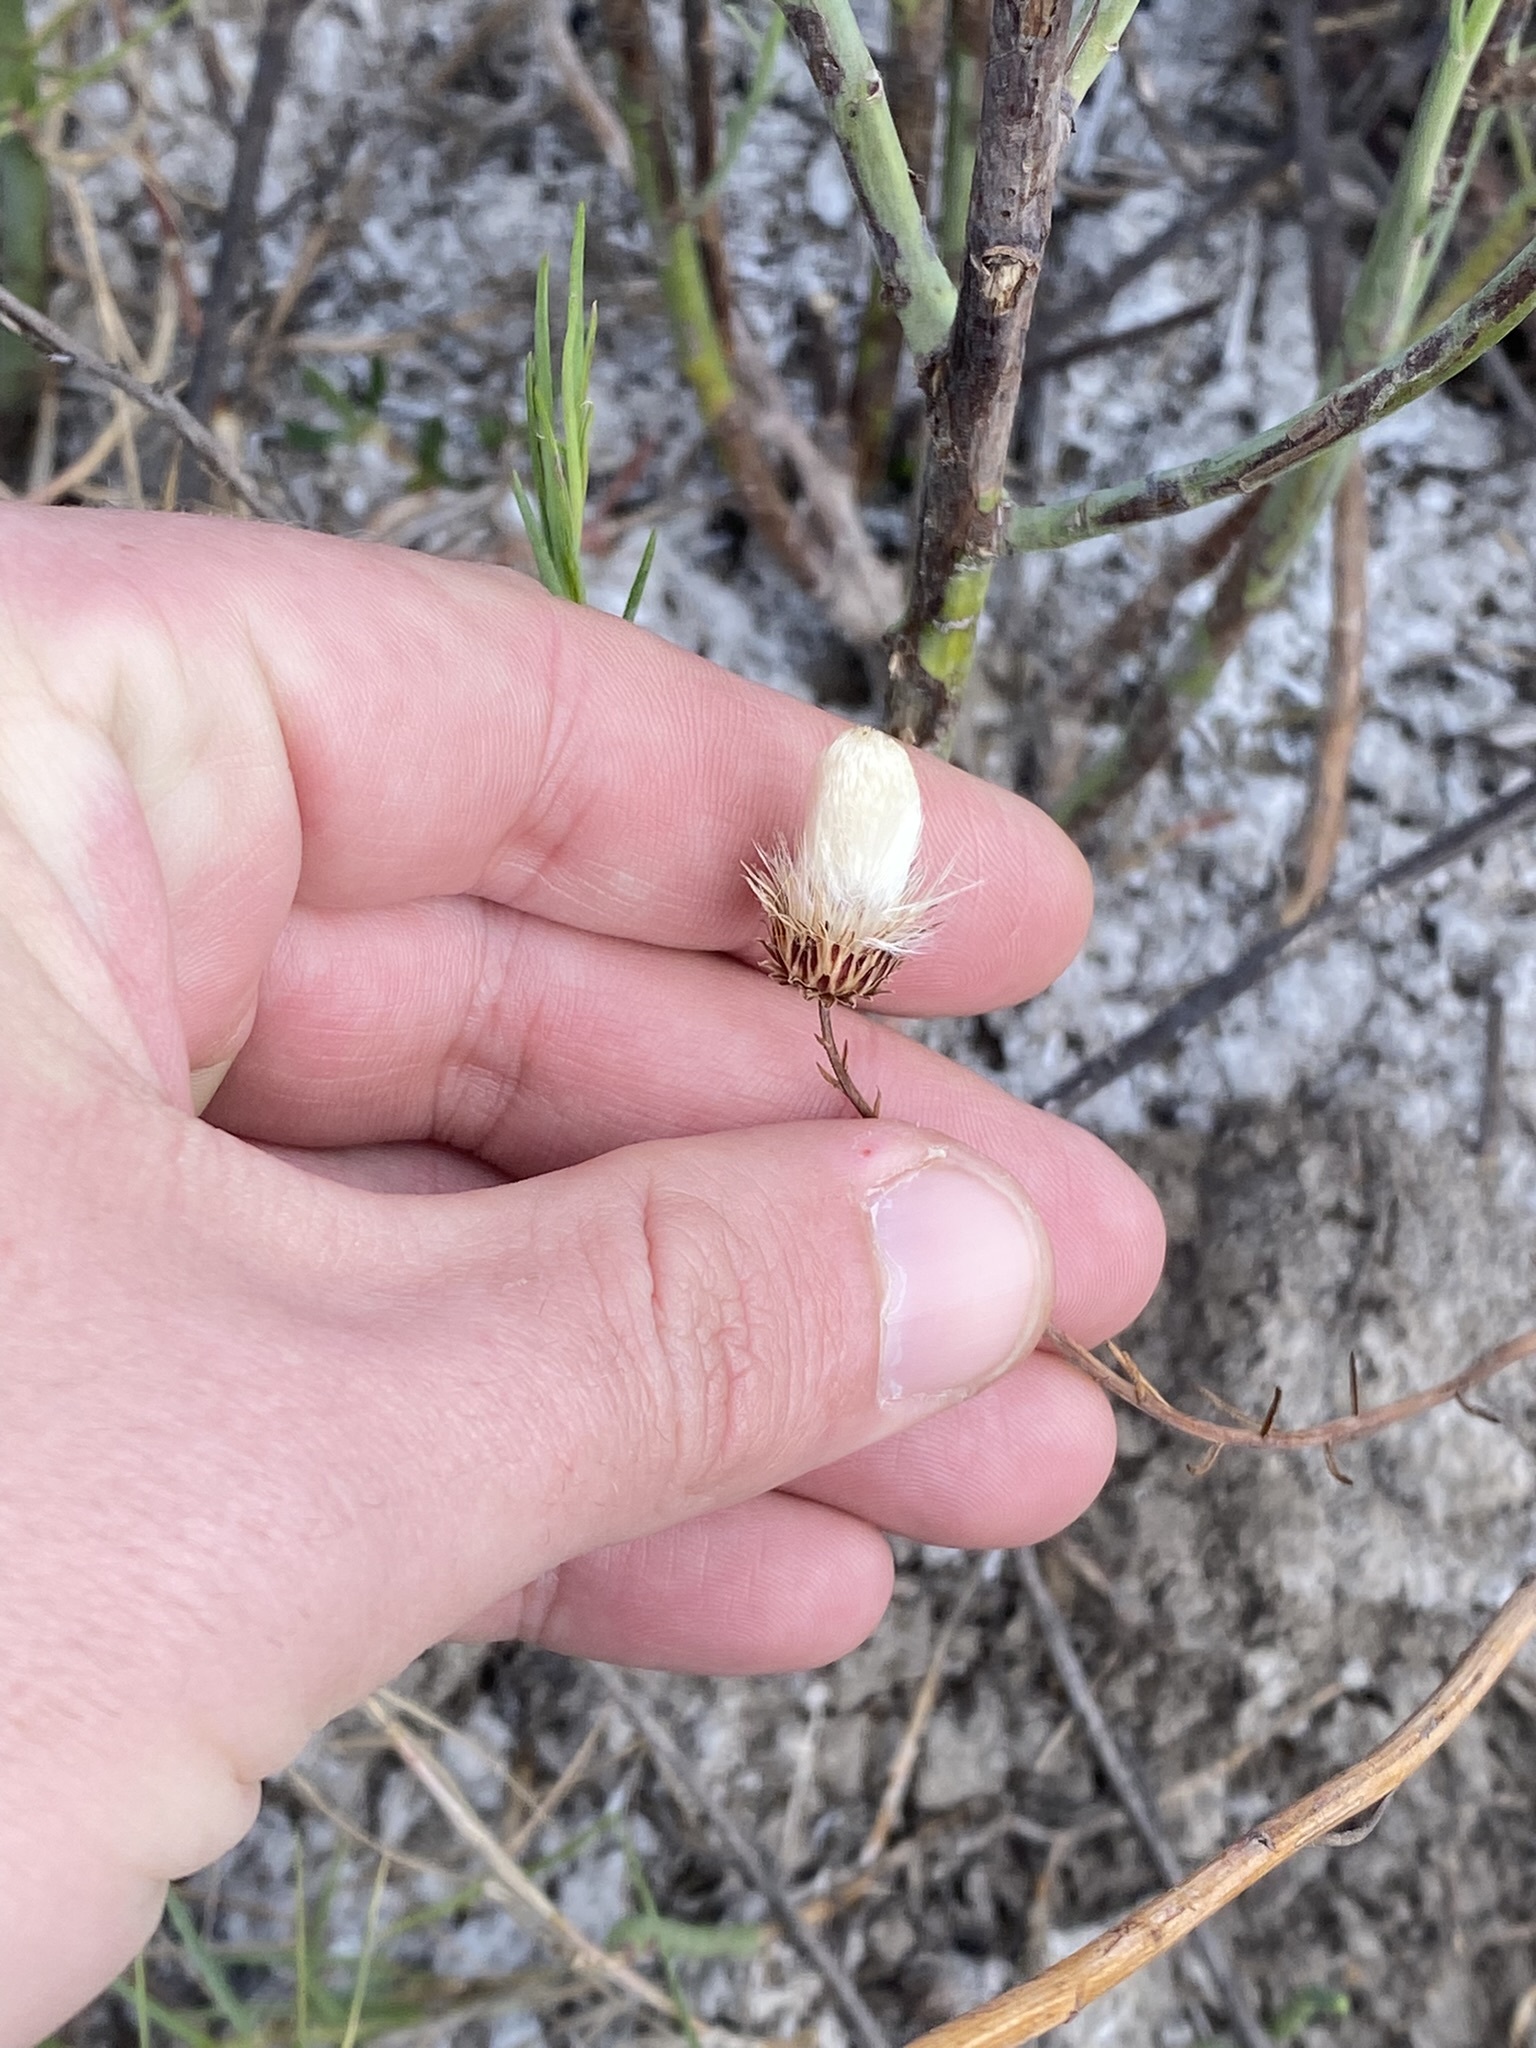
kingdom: Plantae
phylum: Tracheophyta
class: Magnoliopsida
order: Asterales
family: Asteraceae
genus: Baccharis
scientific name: Baccharis juncea
